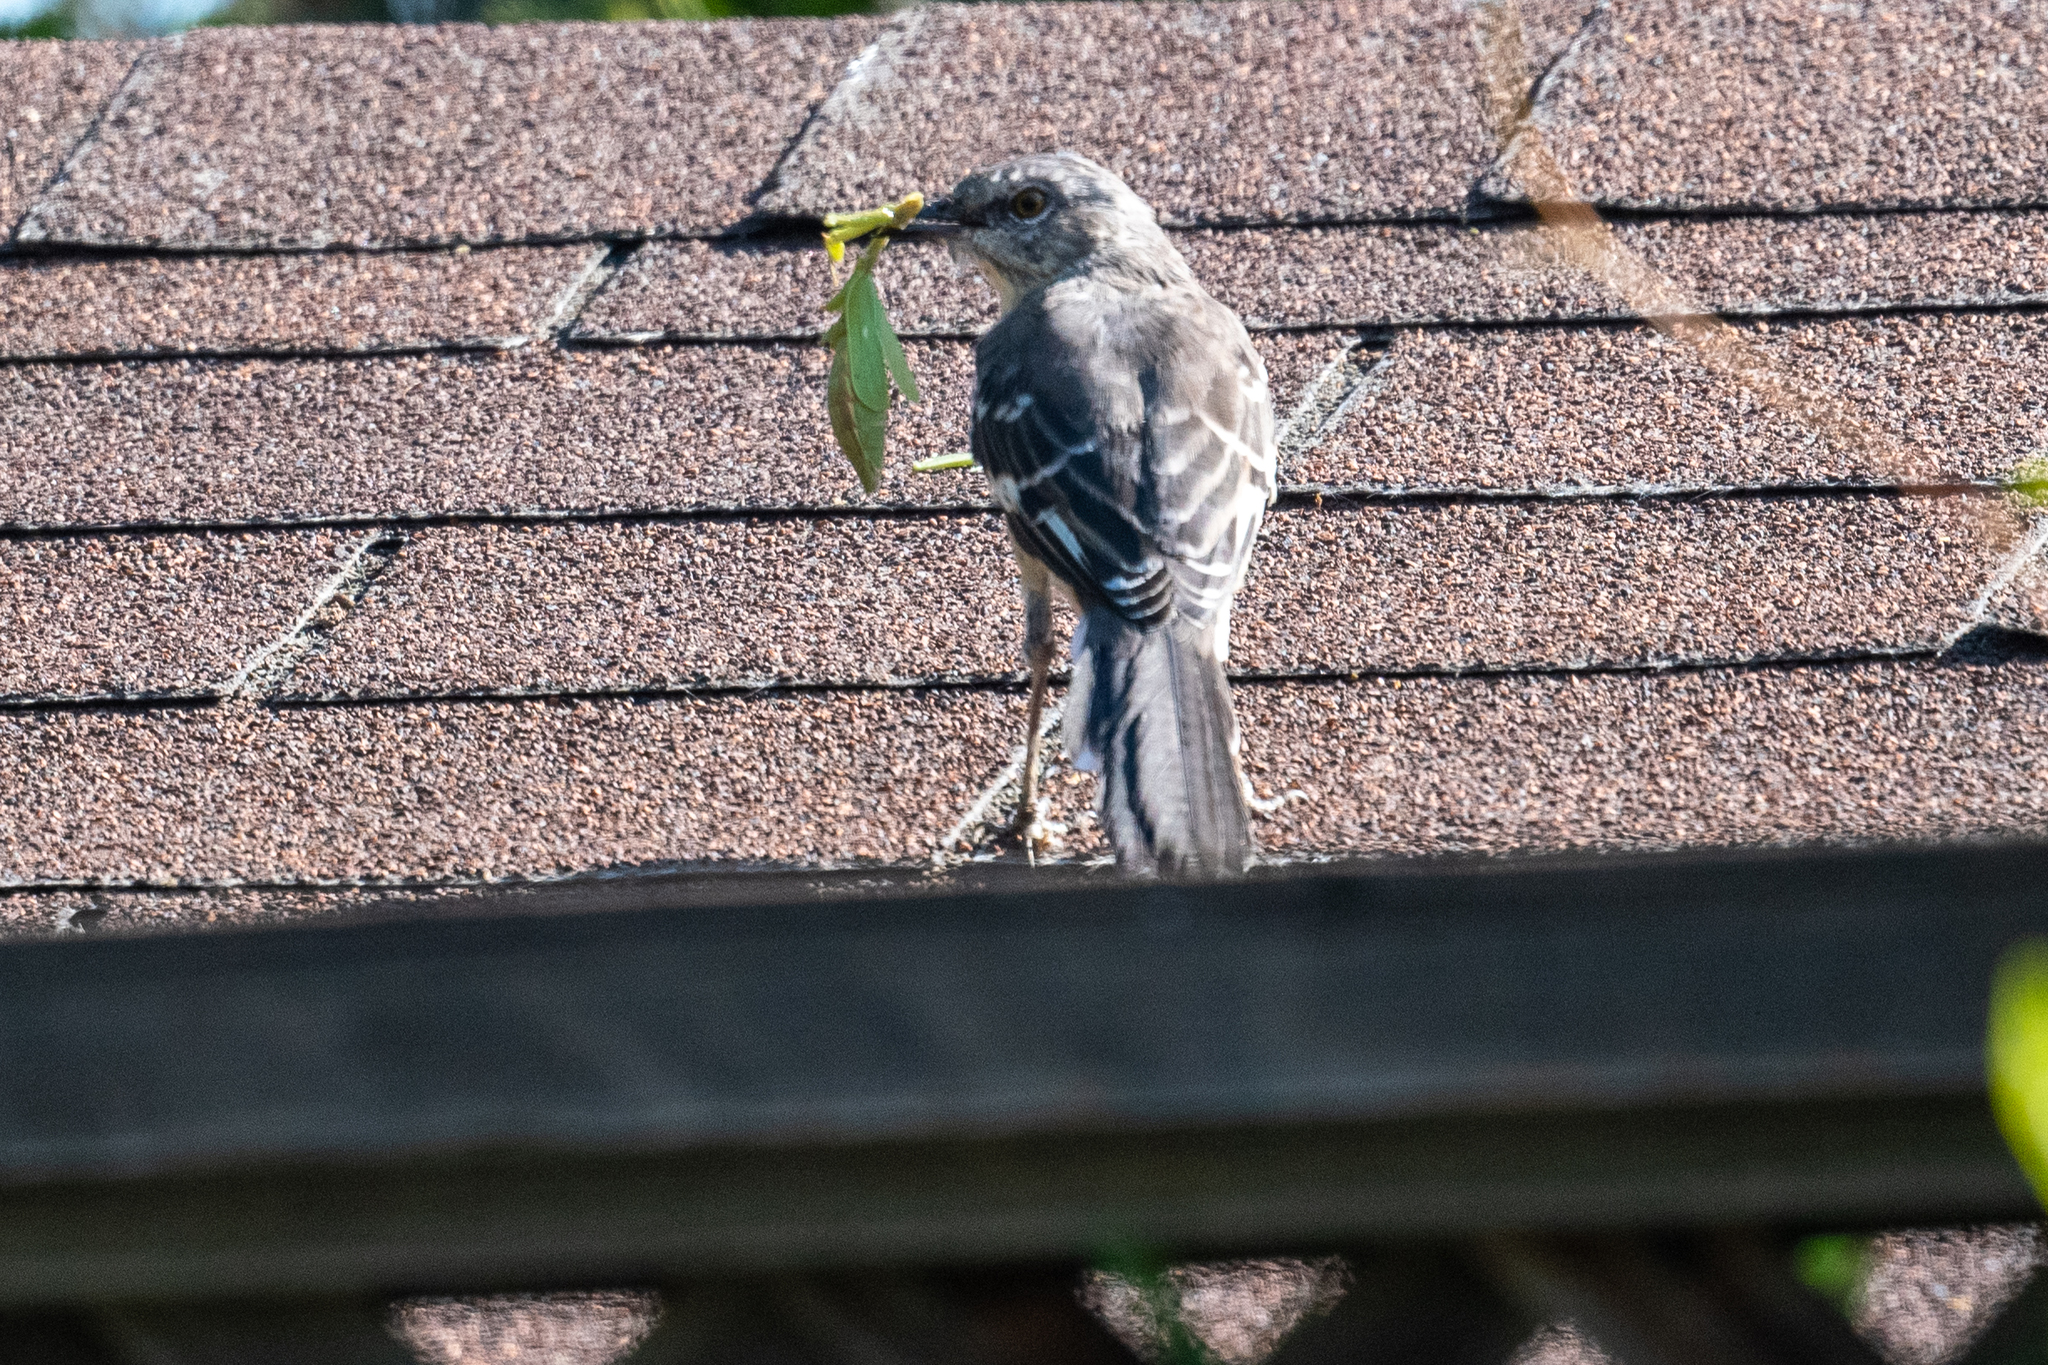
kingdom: Animalia
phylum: Chordata
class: Aves
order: Passeriformes
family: Mimidae
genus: Mimus
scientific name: Mimus polyglottos
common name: Northern mockingbird
